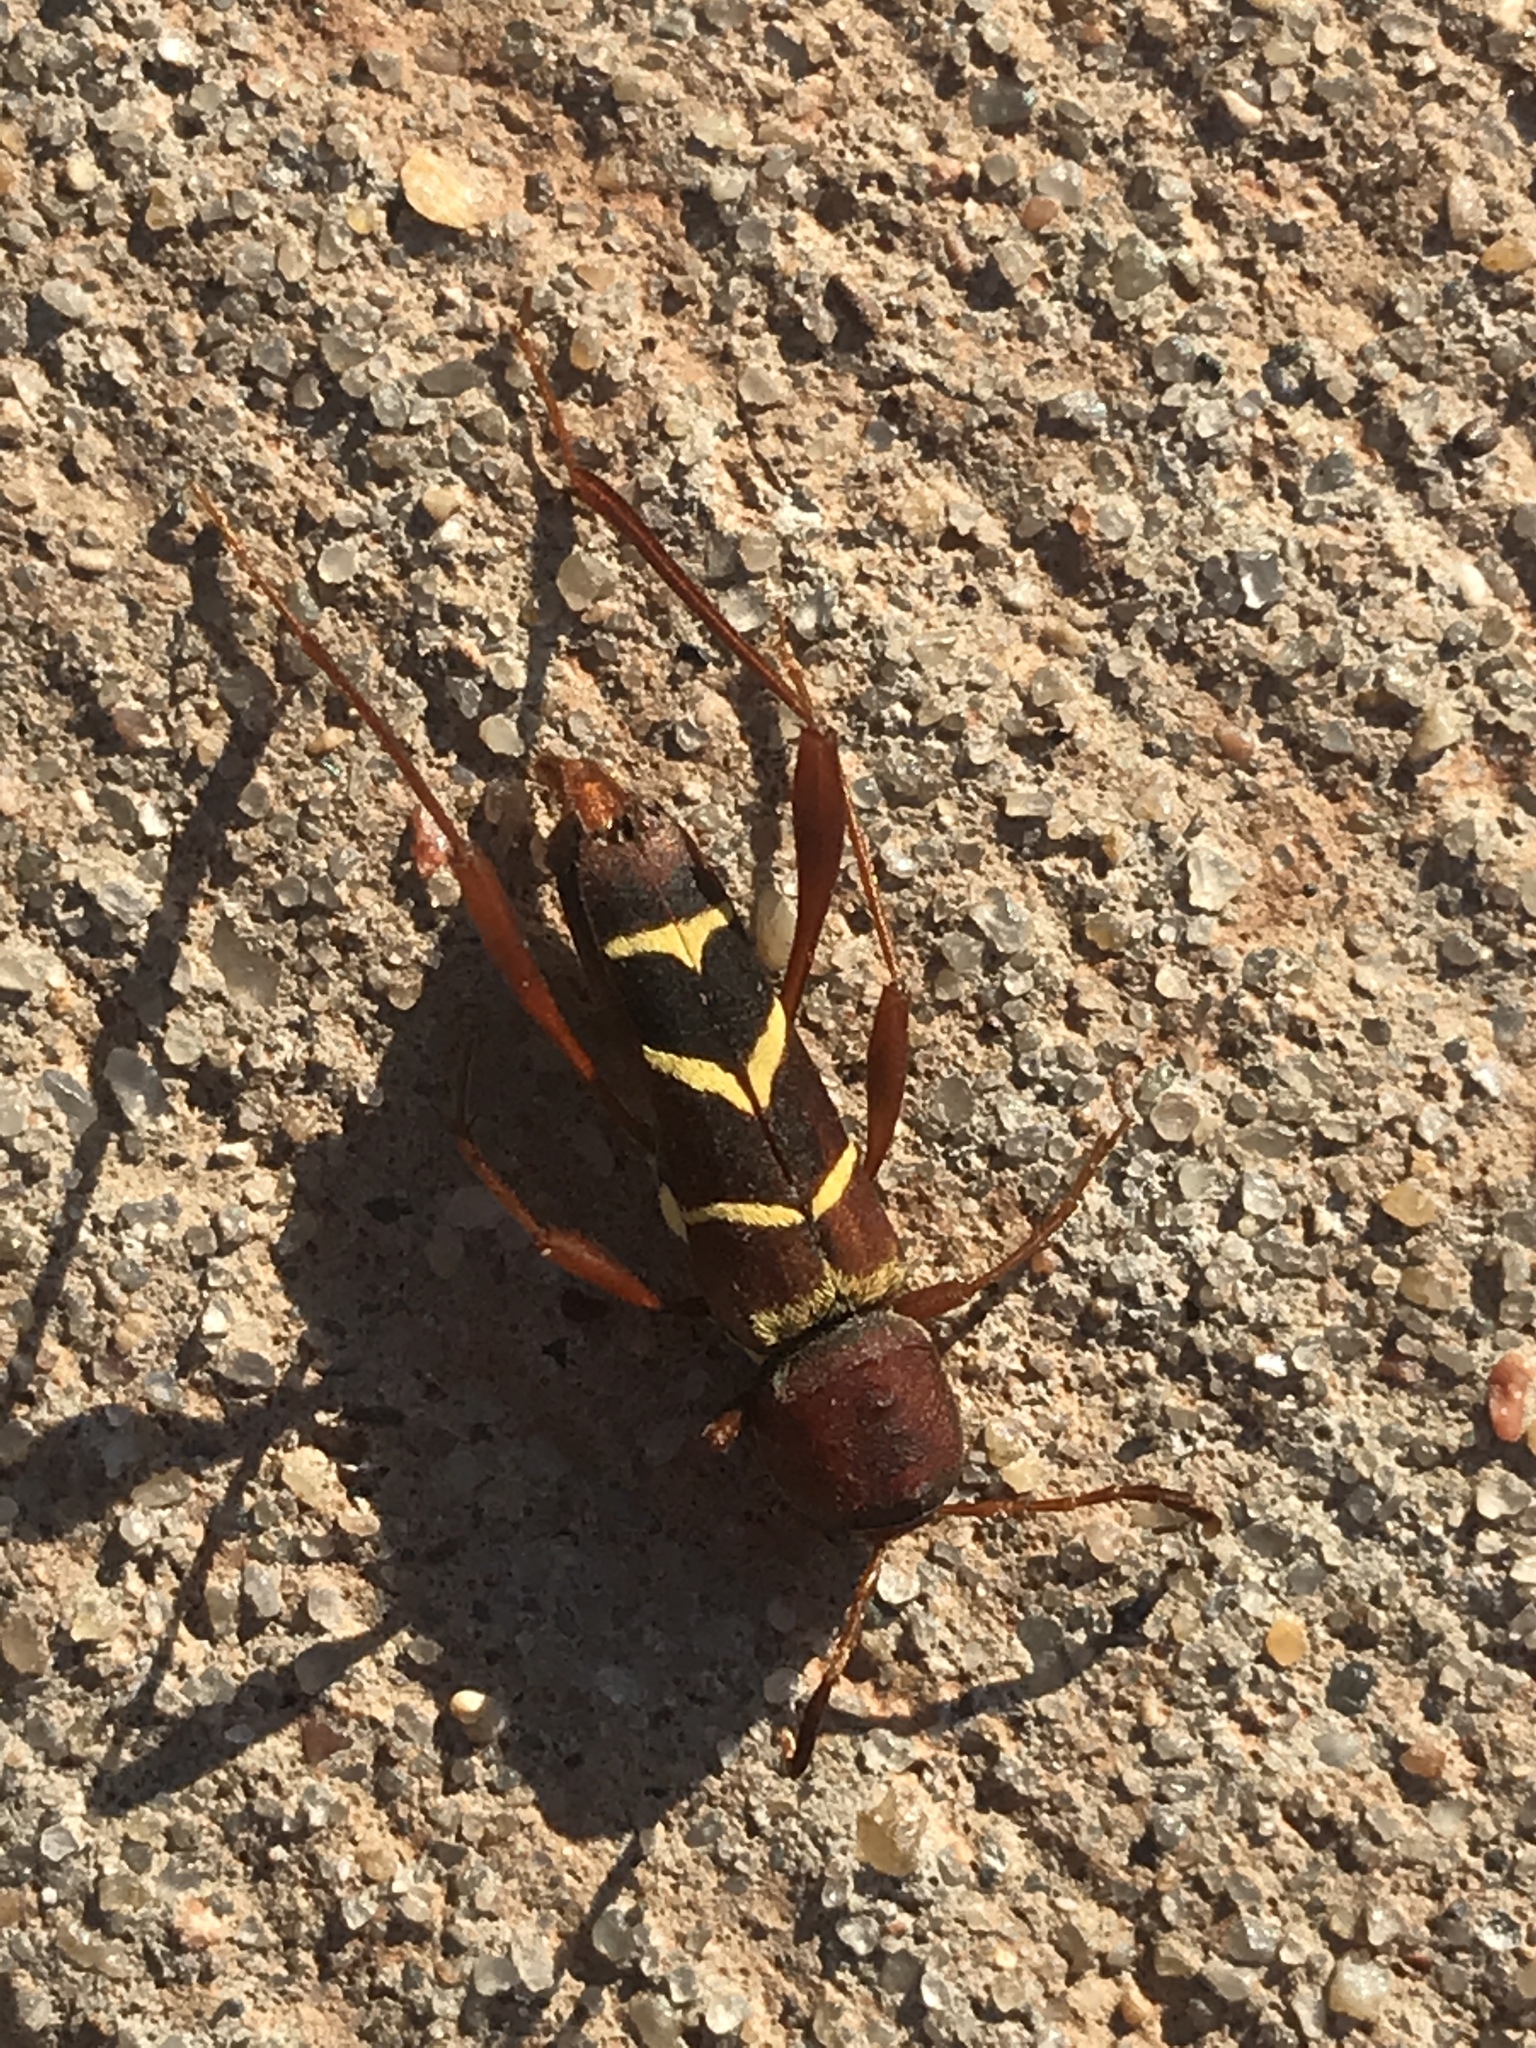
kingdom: Animalia
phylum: Arthropoda
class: Insecta
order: Coleoptera
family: Cerambycidae
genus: Neoclytus
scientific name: Neoclytus acuminatus
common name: Read-headed ash borer
